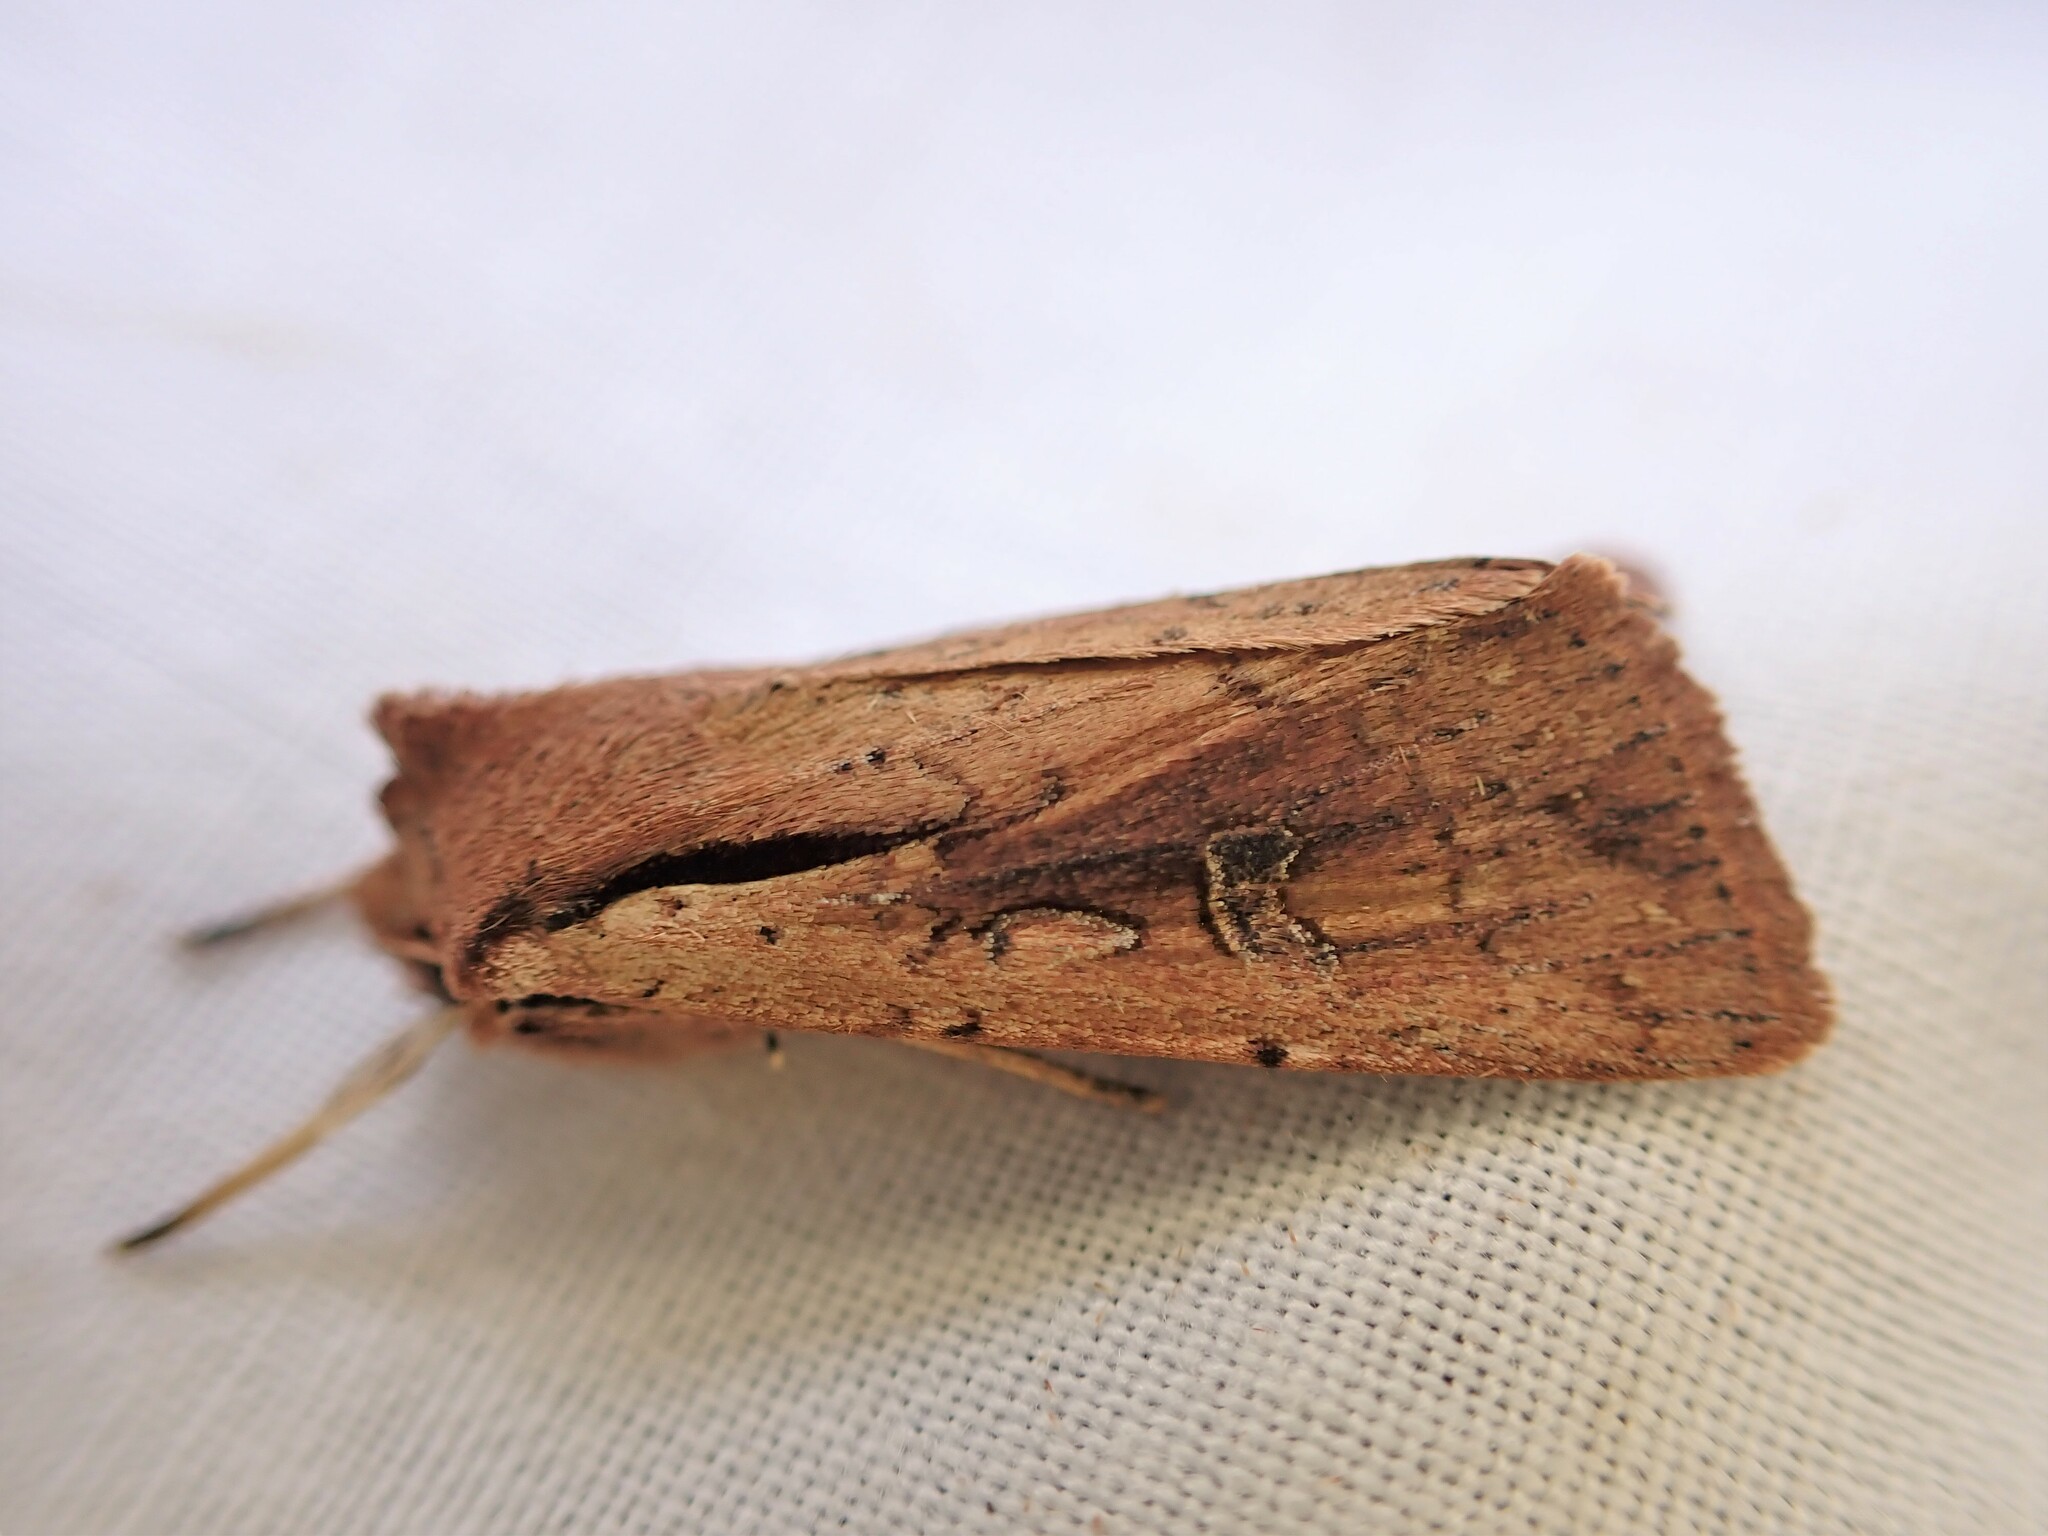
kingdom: Animalia
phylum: Arthropoda
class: Insecta
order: Lepidoptera
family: Noctuidae
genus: Ichneutica
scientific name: Ichneutica atristriga
